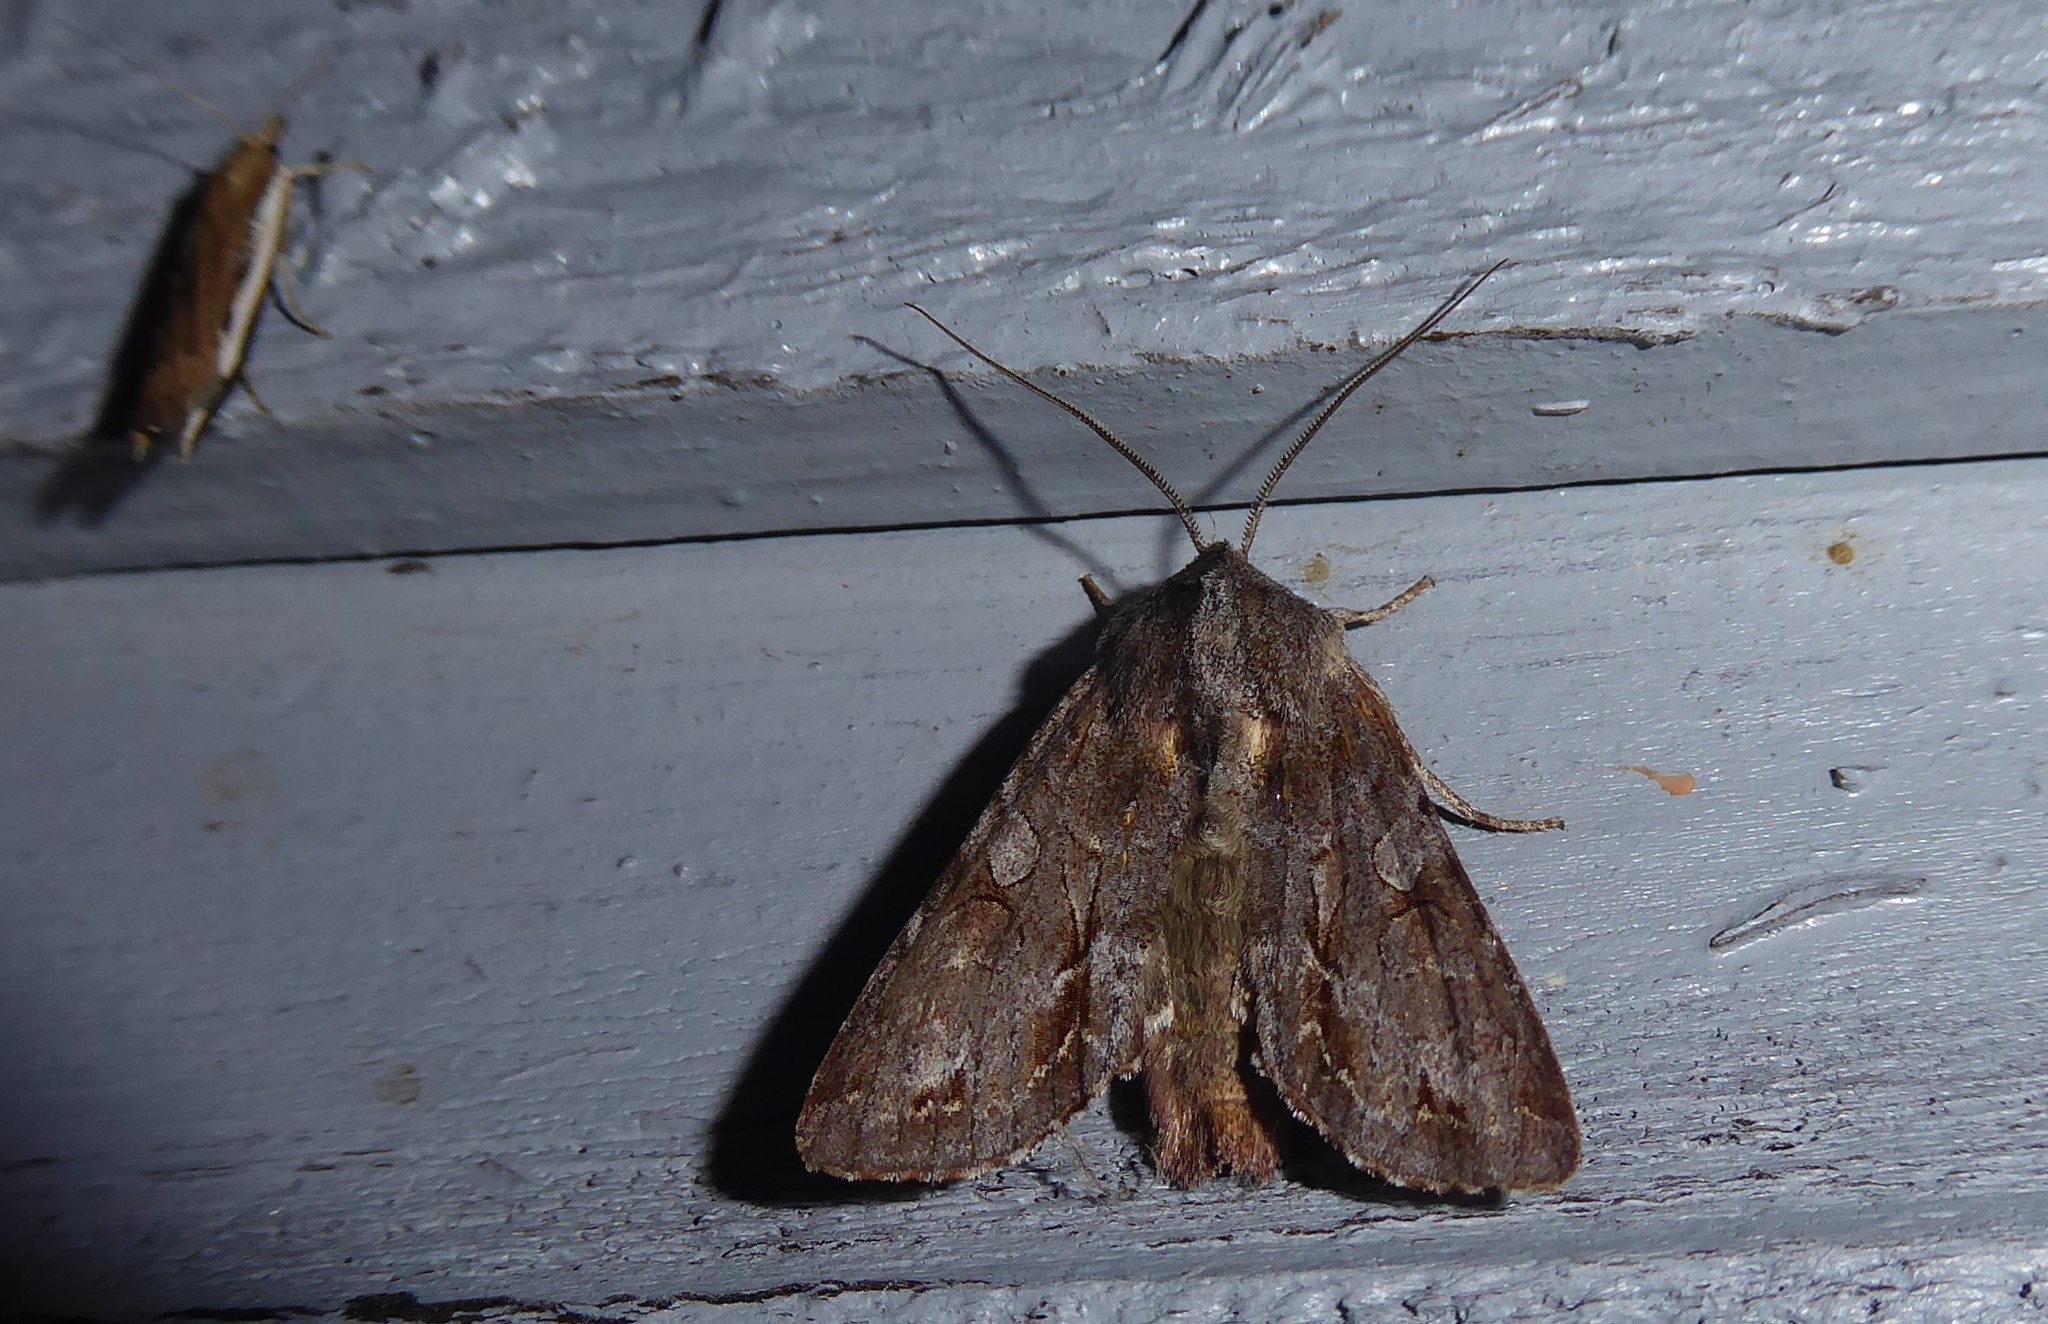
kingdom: Animalia
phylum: Arthropoda
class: Insecta
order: Lepidoptera
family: Noctuidae
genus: Ichneutica
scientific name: Ichneutica
